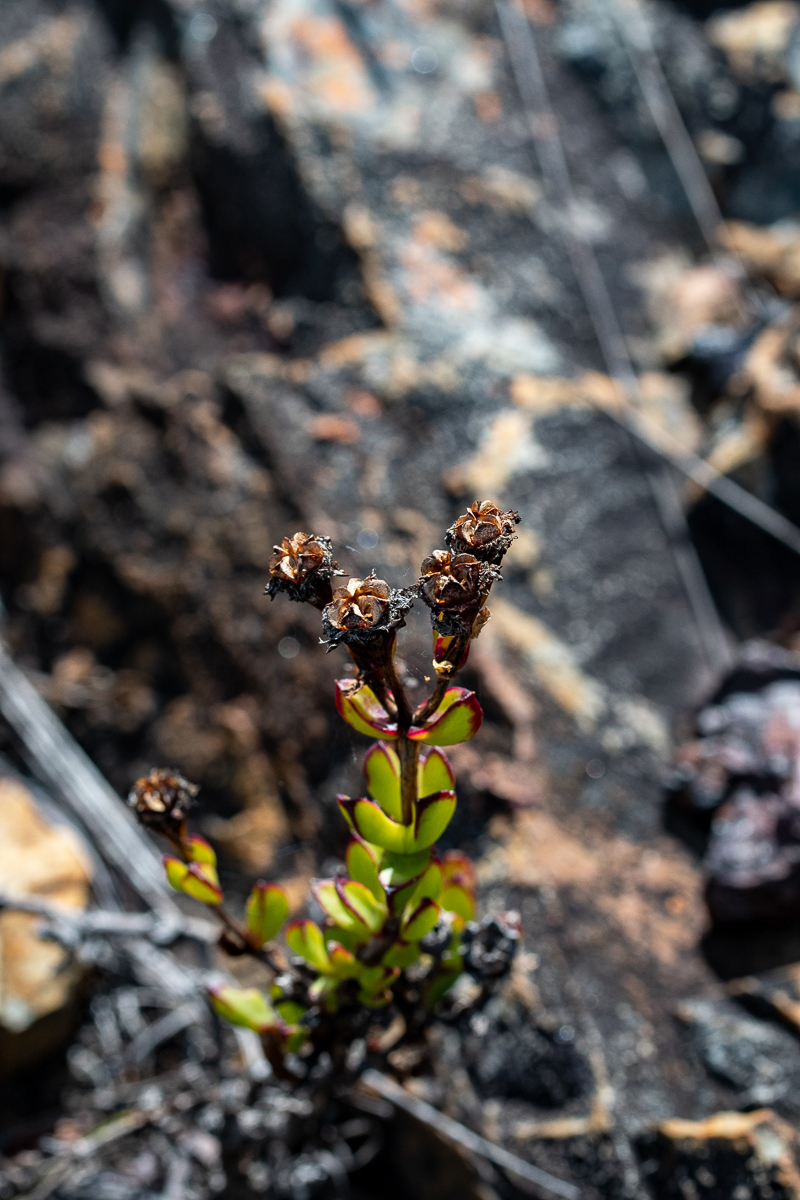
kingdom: Plantae
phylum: Tracheophyta
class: Magnoliopsida
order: Caryophyllales
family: Aizoaceae
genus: Erepsia
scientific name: Erepsia inclaudens
